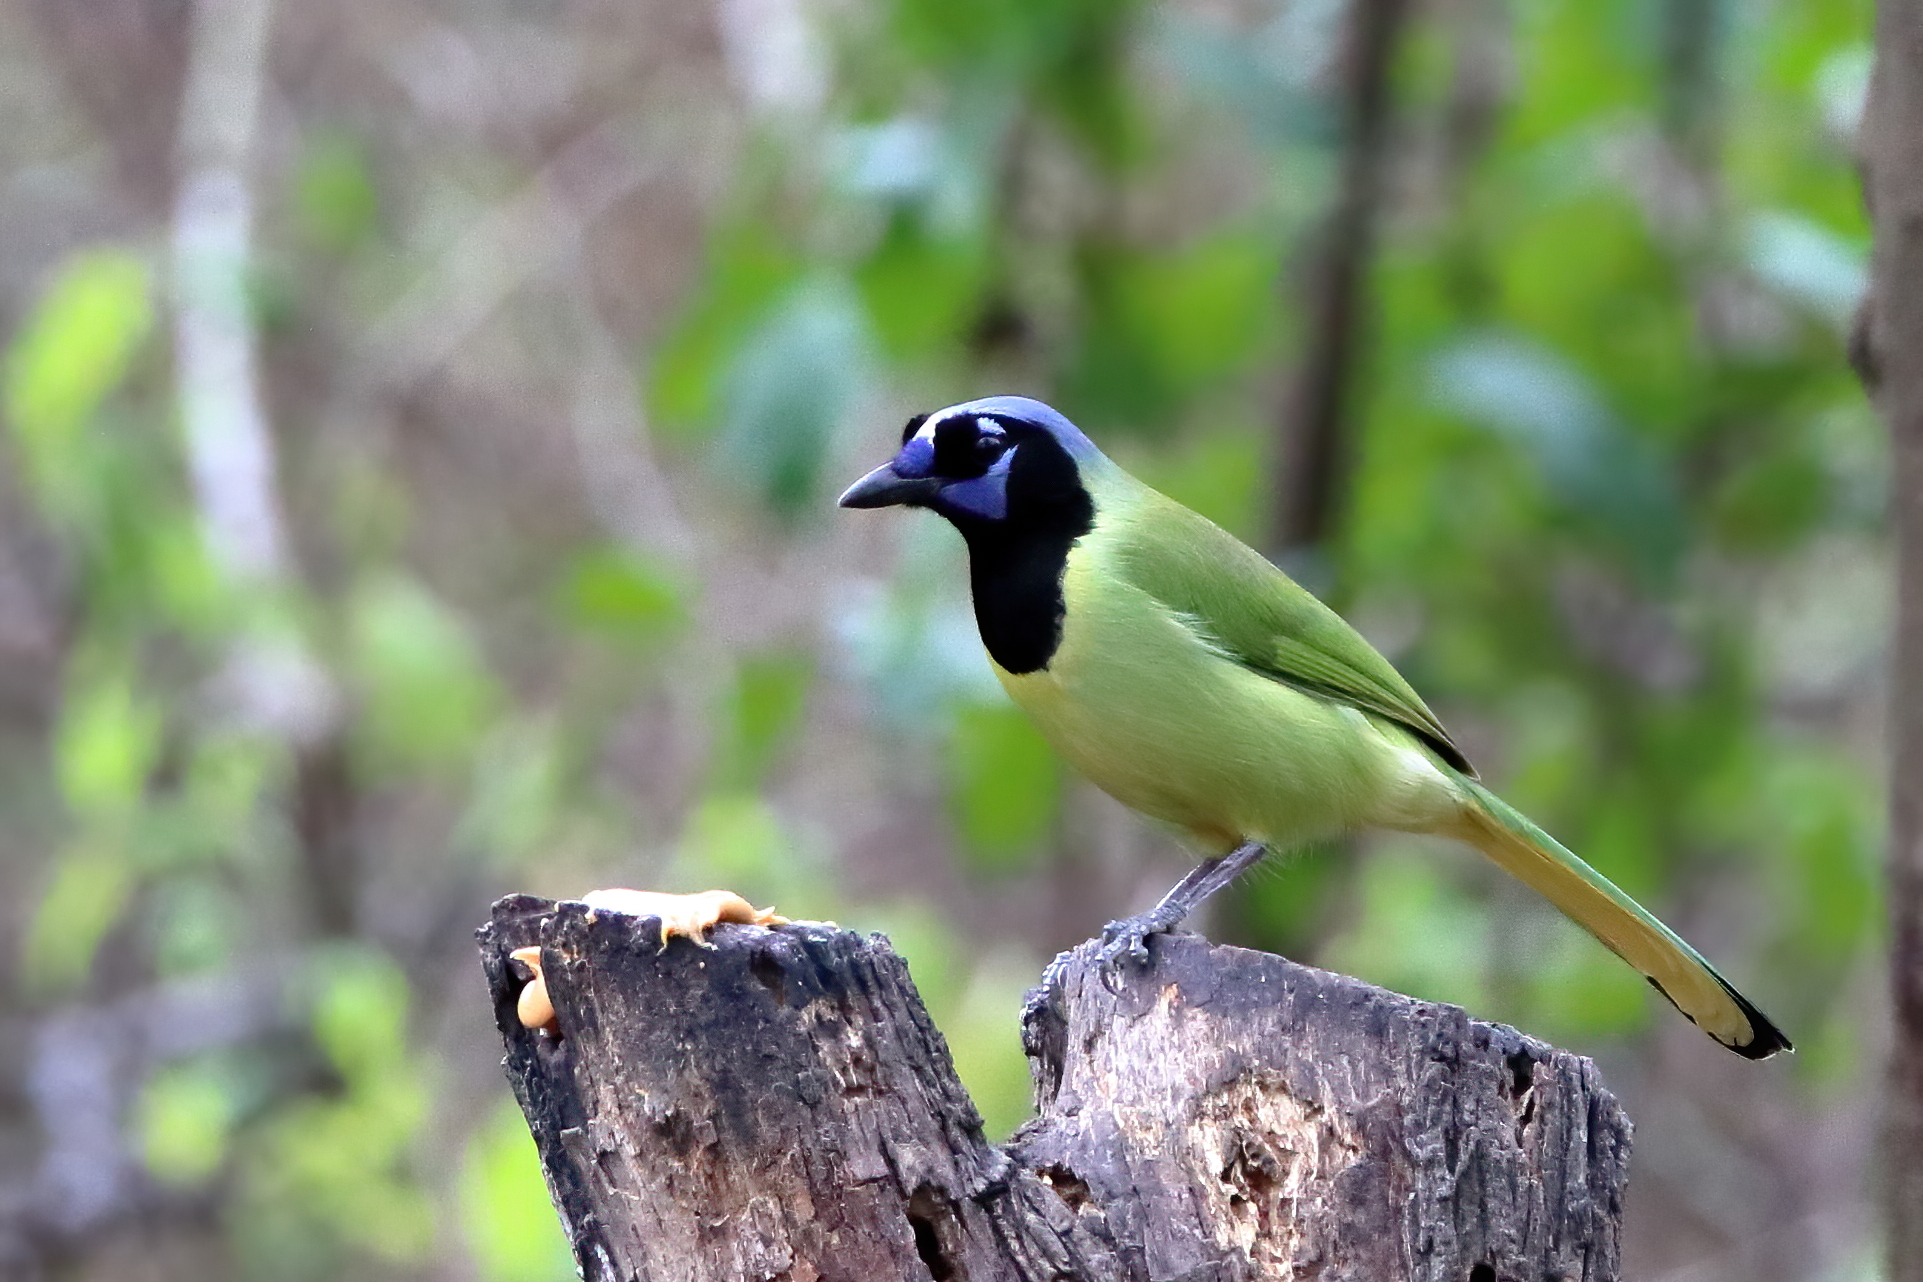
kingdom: Animalia
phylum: Chordata
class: Aves
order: Passeriformes
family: Corvidae
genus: Cyanocorax
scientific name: Cyanocorax yncas
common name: Green jay
